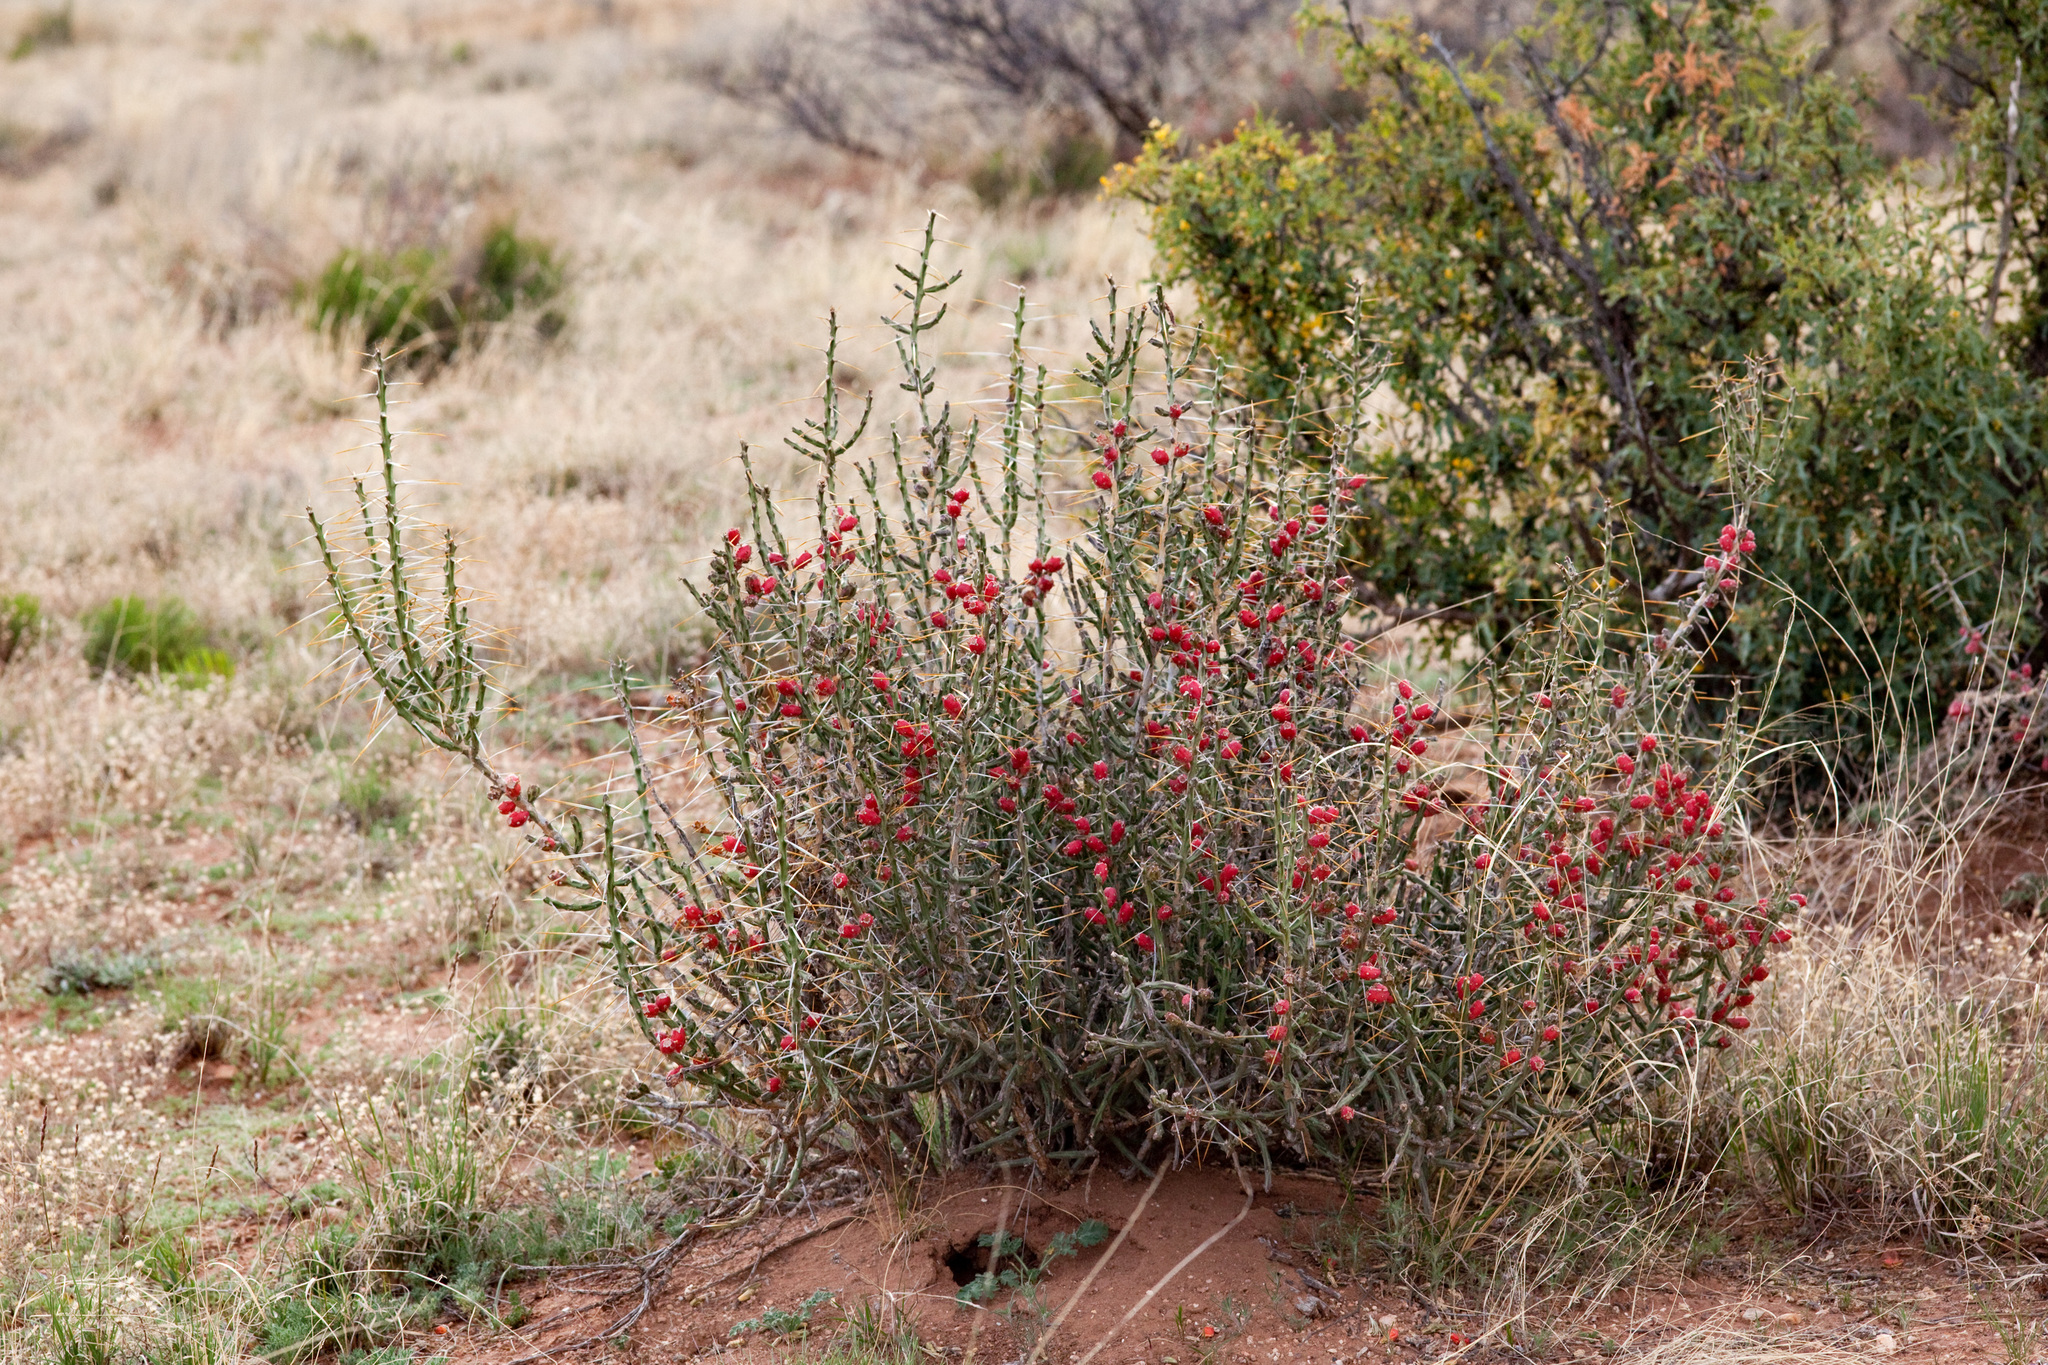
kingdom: Plantae
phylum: Tracheophyta
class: Magnoliopsida
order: Caryophyllales
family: Cactaceae
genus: Cylindropuntia
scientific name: Cylindropuntia leptocaulis
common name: Christmas cactus
